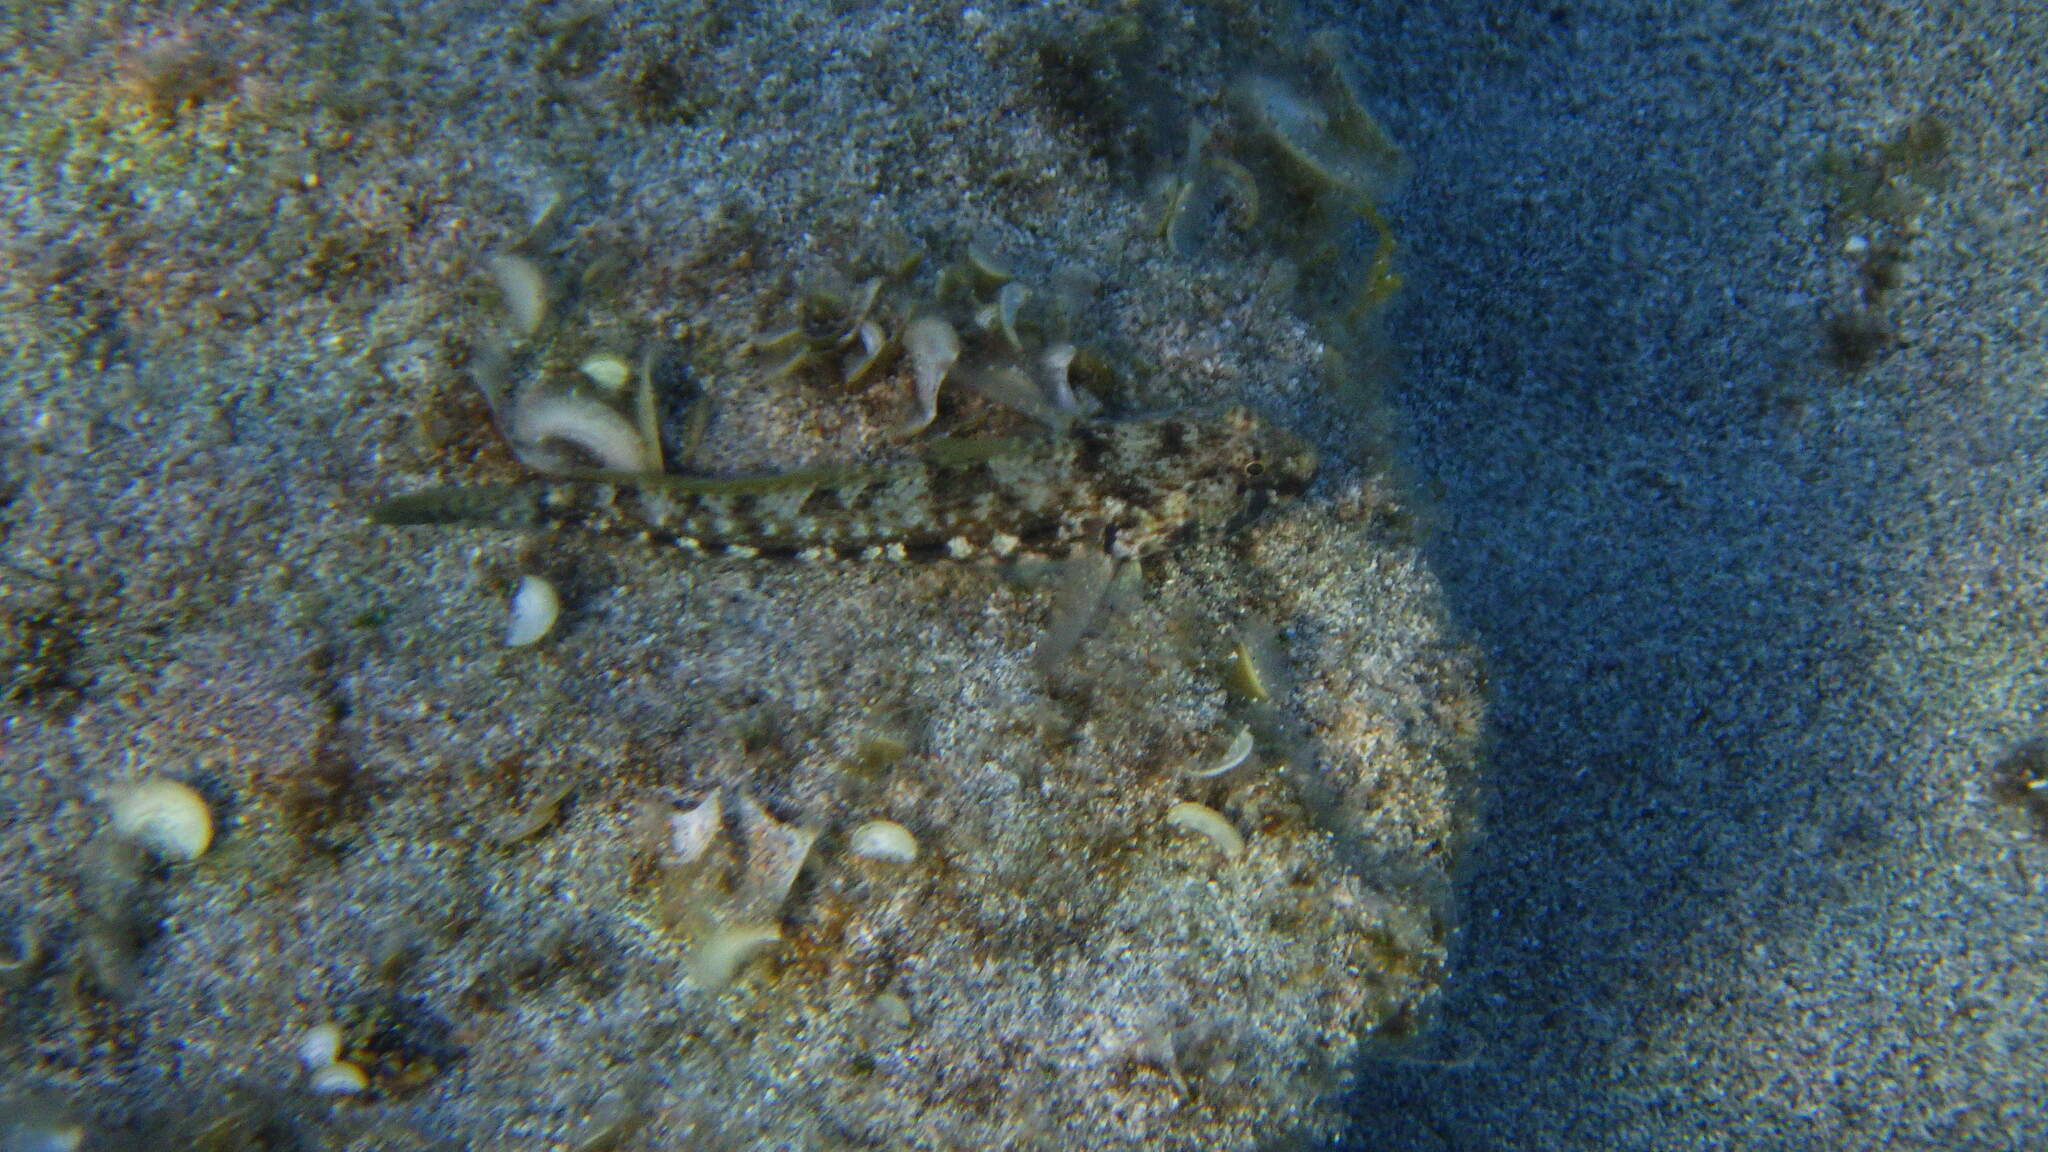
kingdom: Animalia
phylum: Chordata
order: Perciformes
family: Gobiidae
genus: Gobius
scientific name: Gobius incognitus
